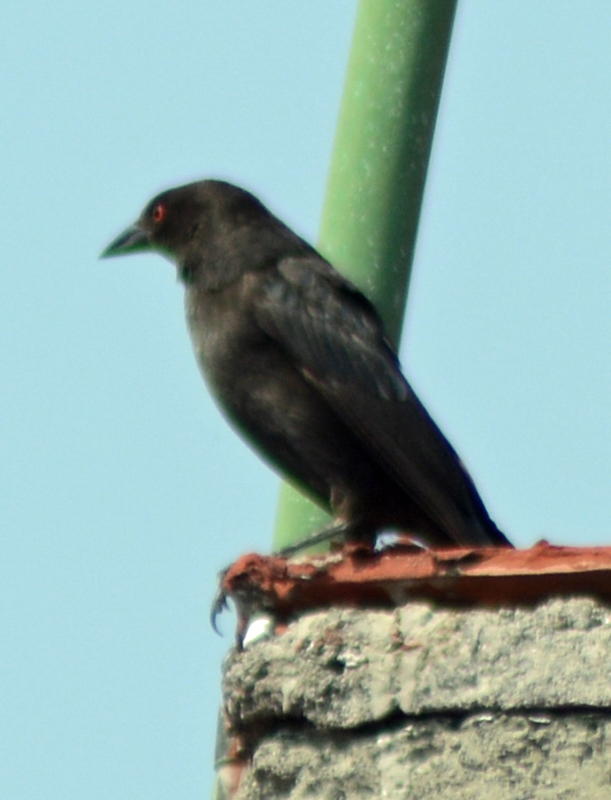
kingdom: Animalia
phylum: Chordata
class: Aves
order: Passeriformes
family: Icteridae
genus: Molothrus
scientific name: Molothrus aeneus
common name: Bronzed cowbird
